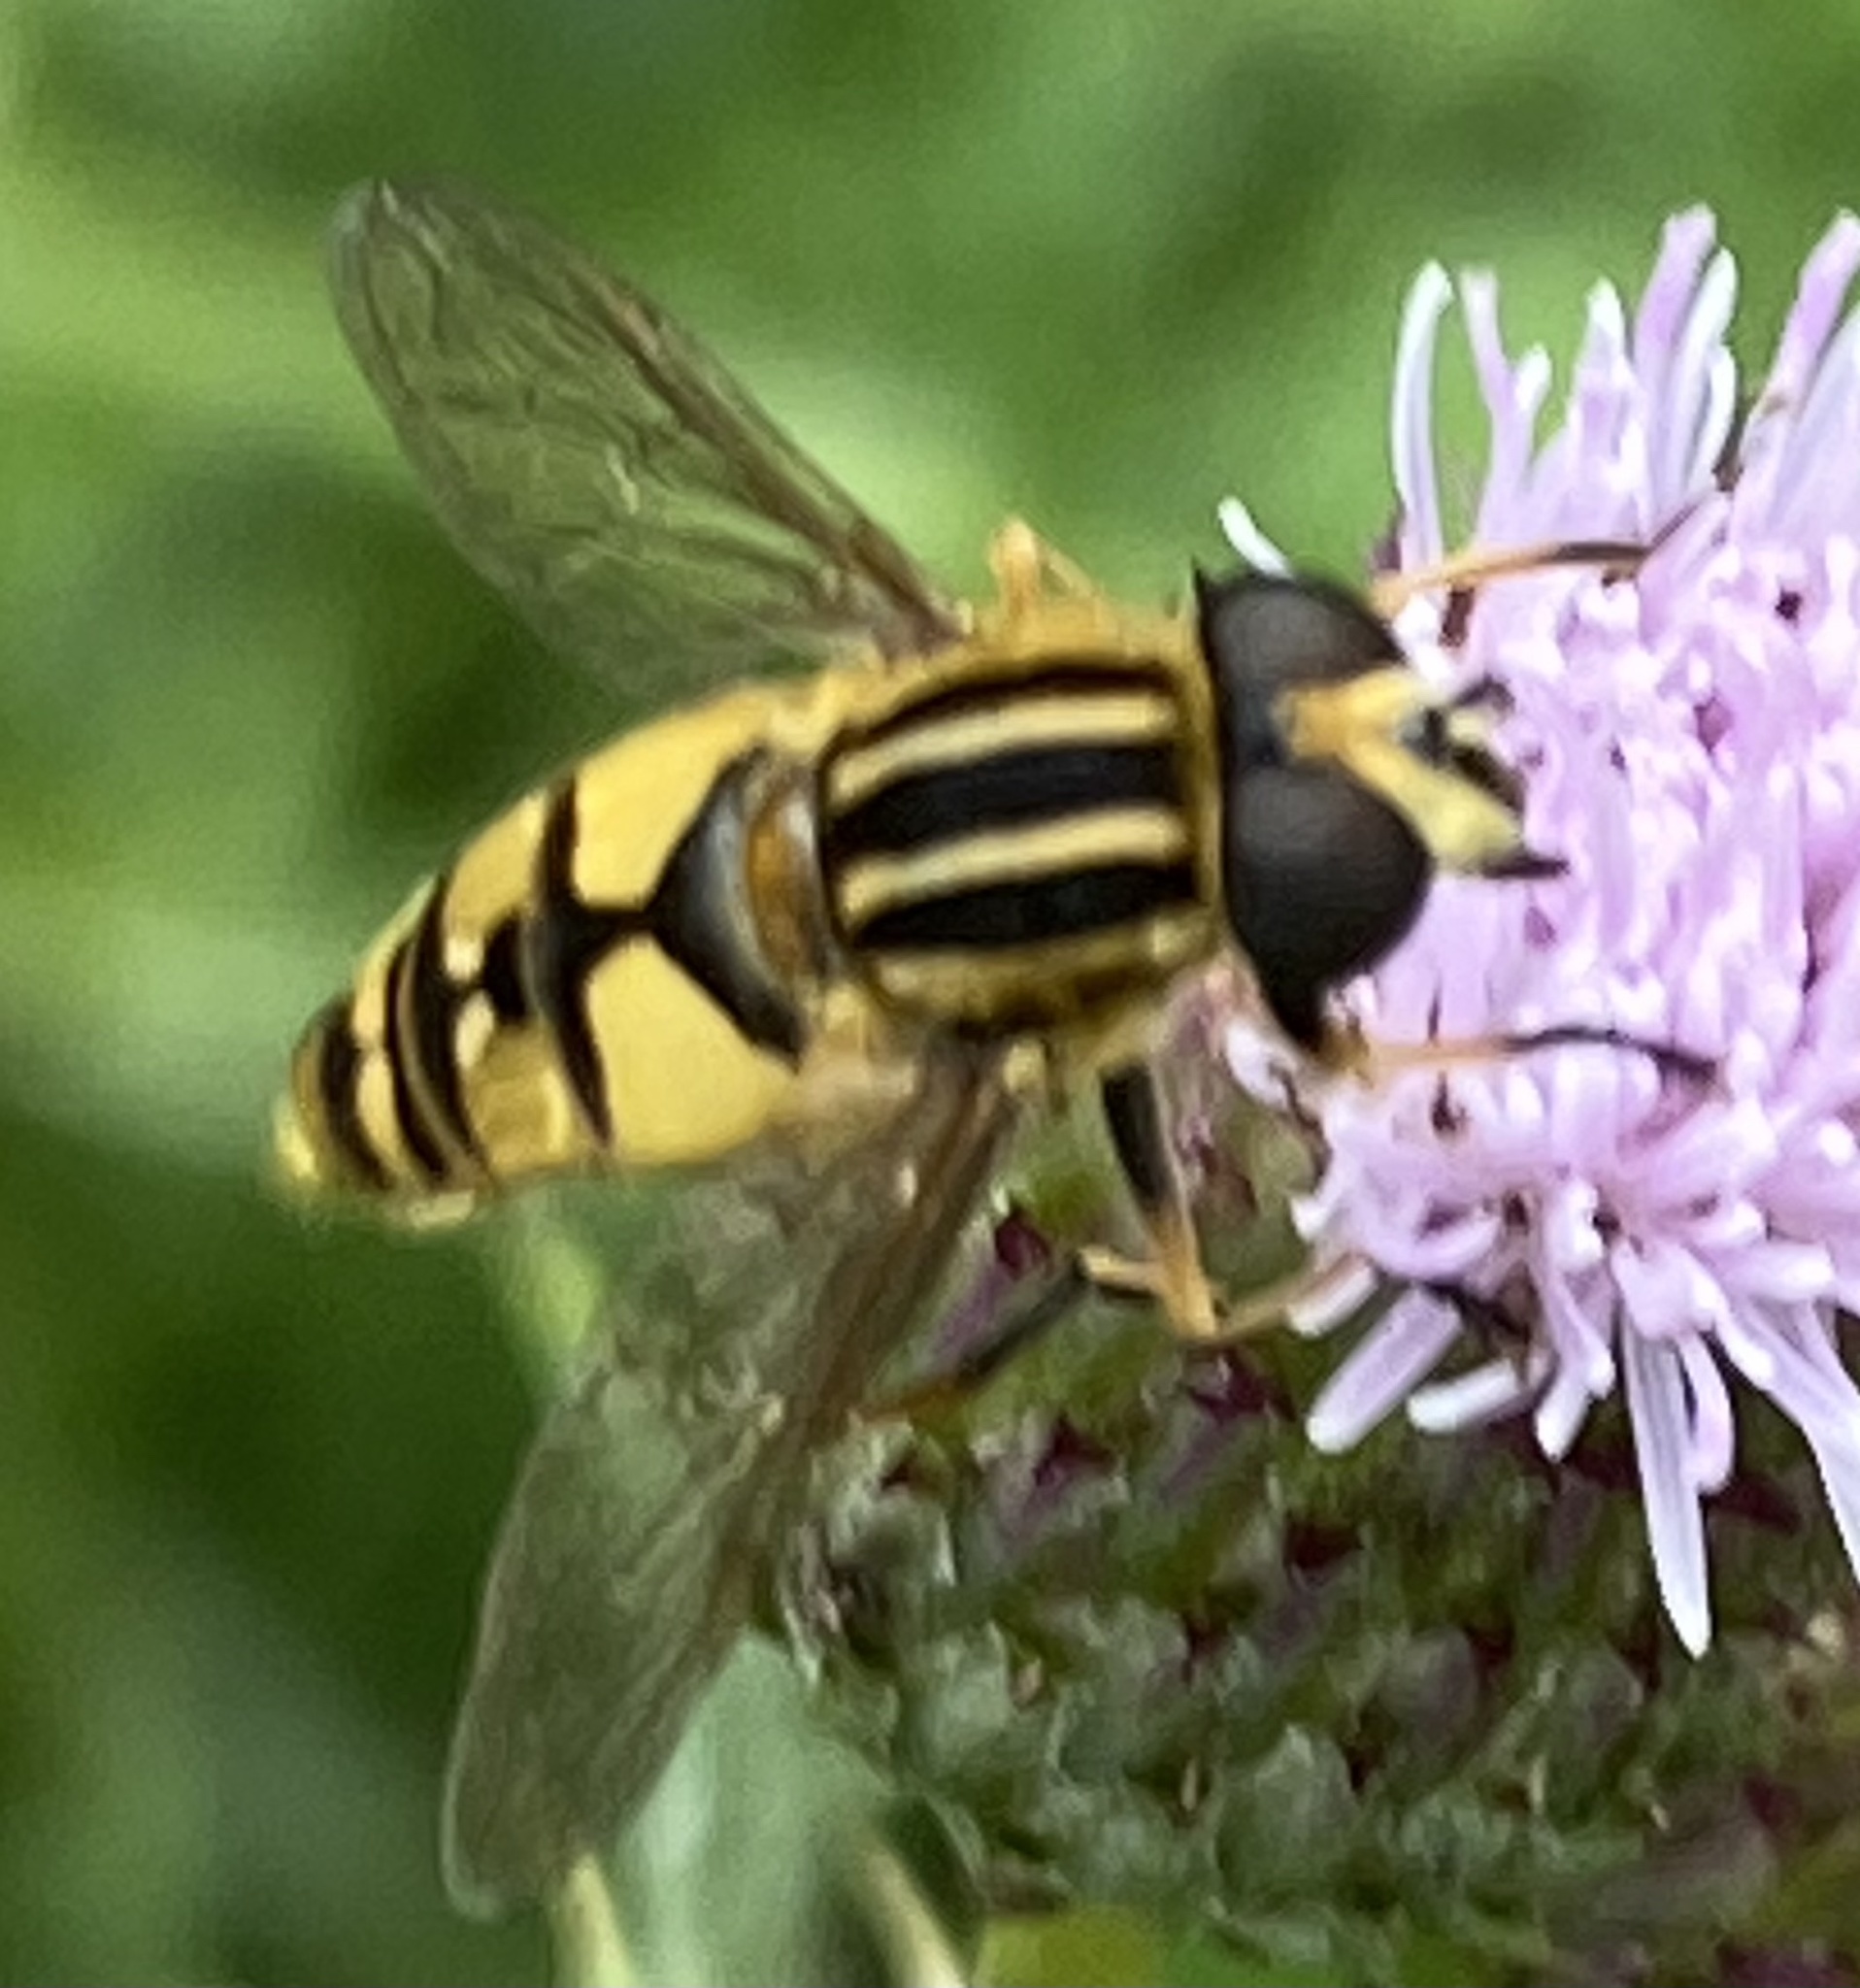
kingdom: Animalia
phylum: Arthropoda
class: Insecta
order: Diptera
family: Syrphidae
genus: Helophilus
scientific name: Helophilus pendulus
